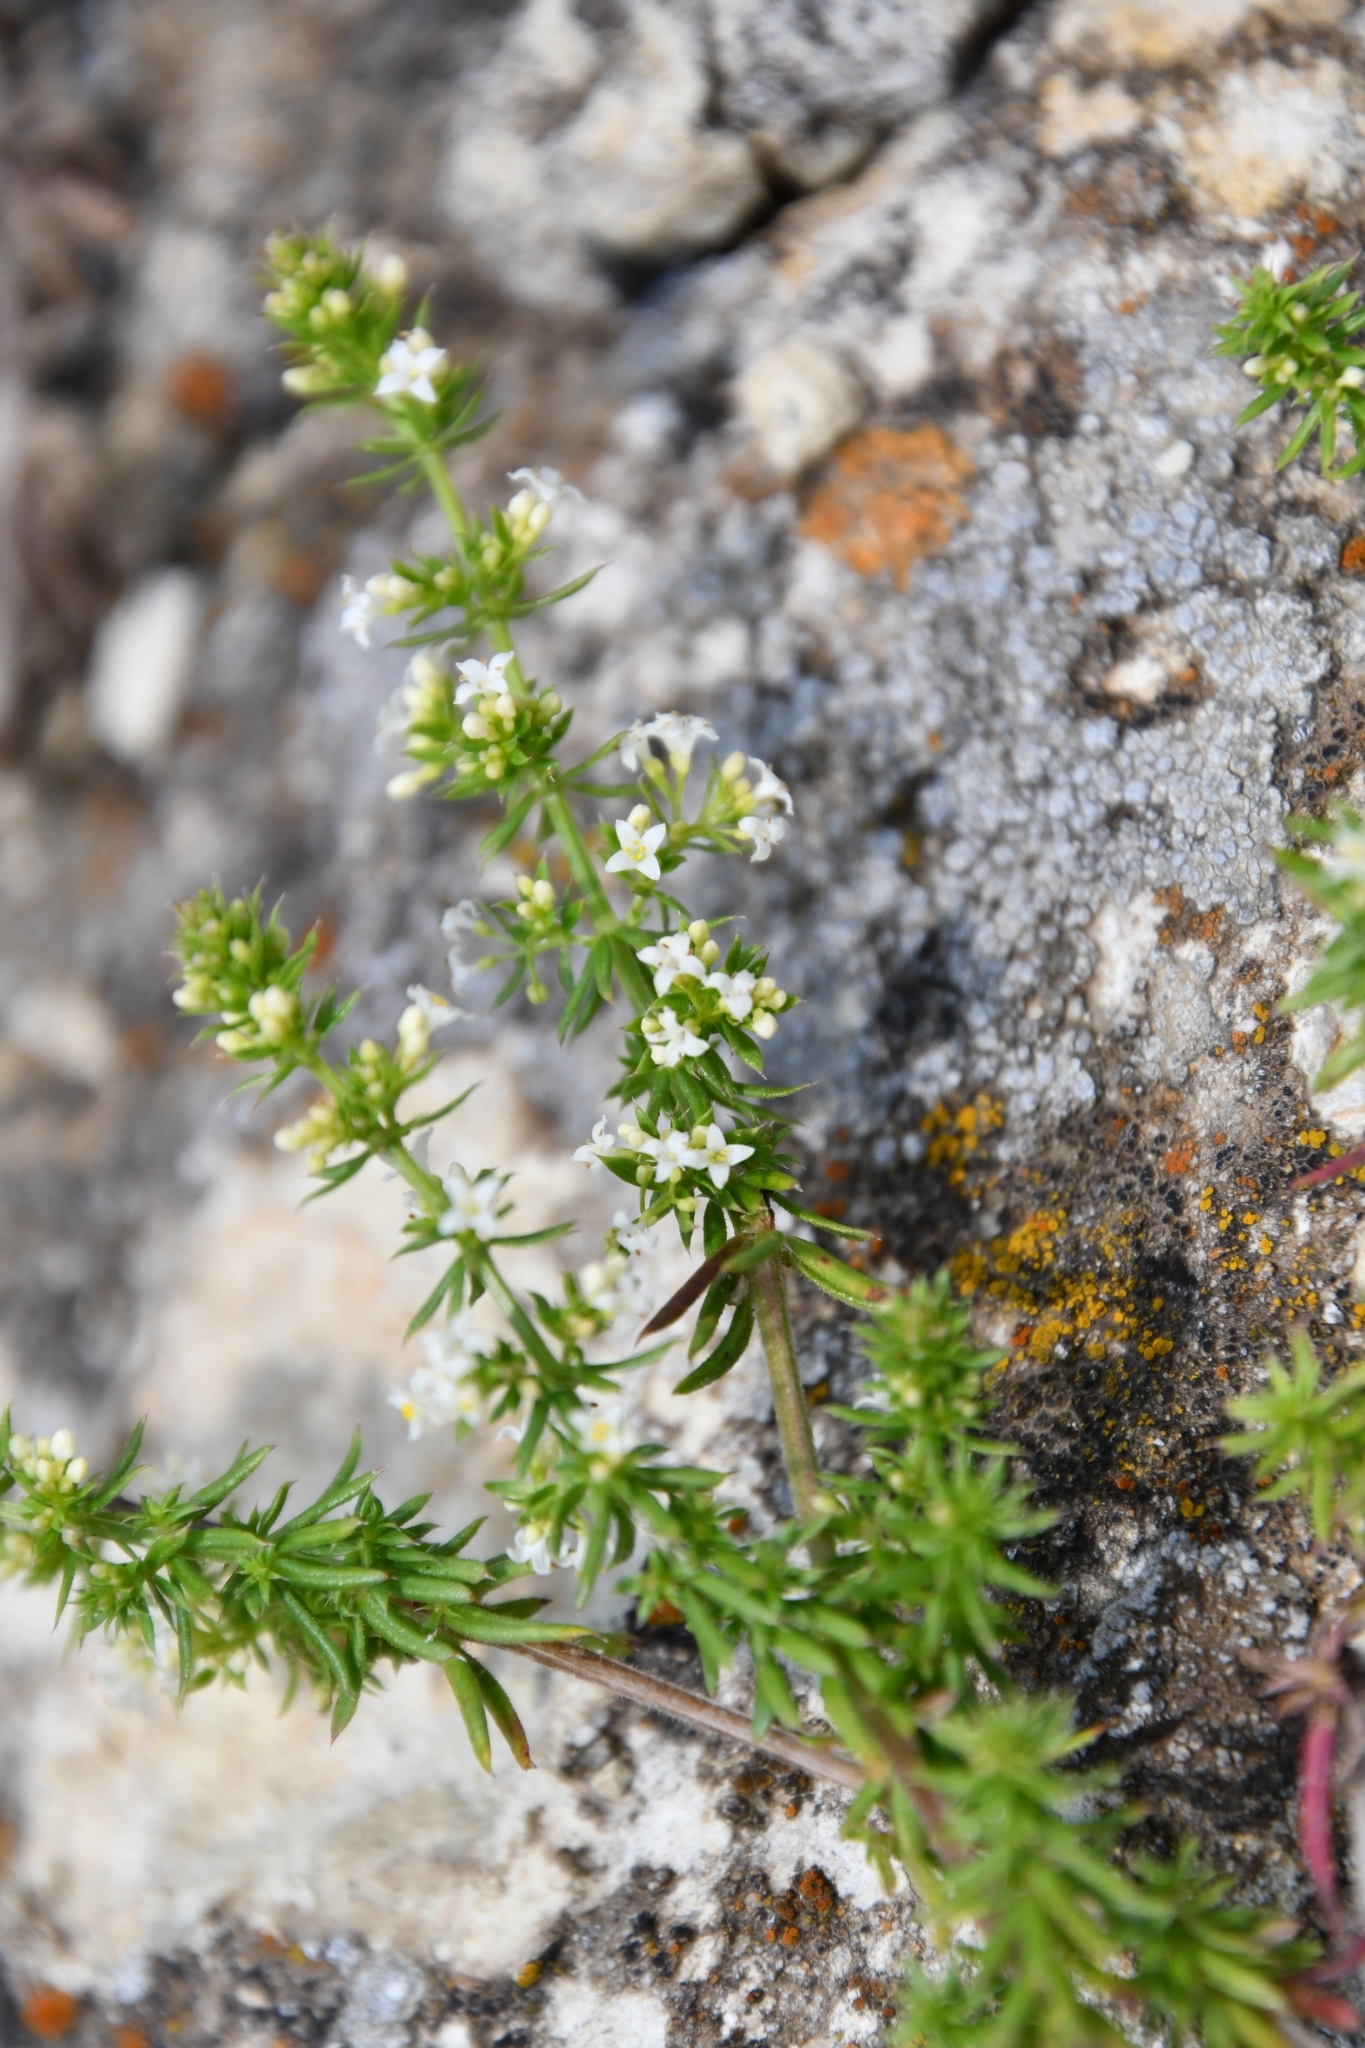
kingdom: Plantae
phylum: Tracheophyta
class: Magnoliopsida
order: Gentianales
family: Rubiaceae
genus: Galium
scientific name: Galium humifusum
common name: Spreading bedstraw
